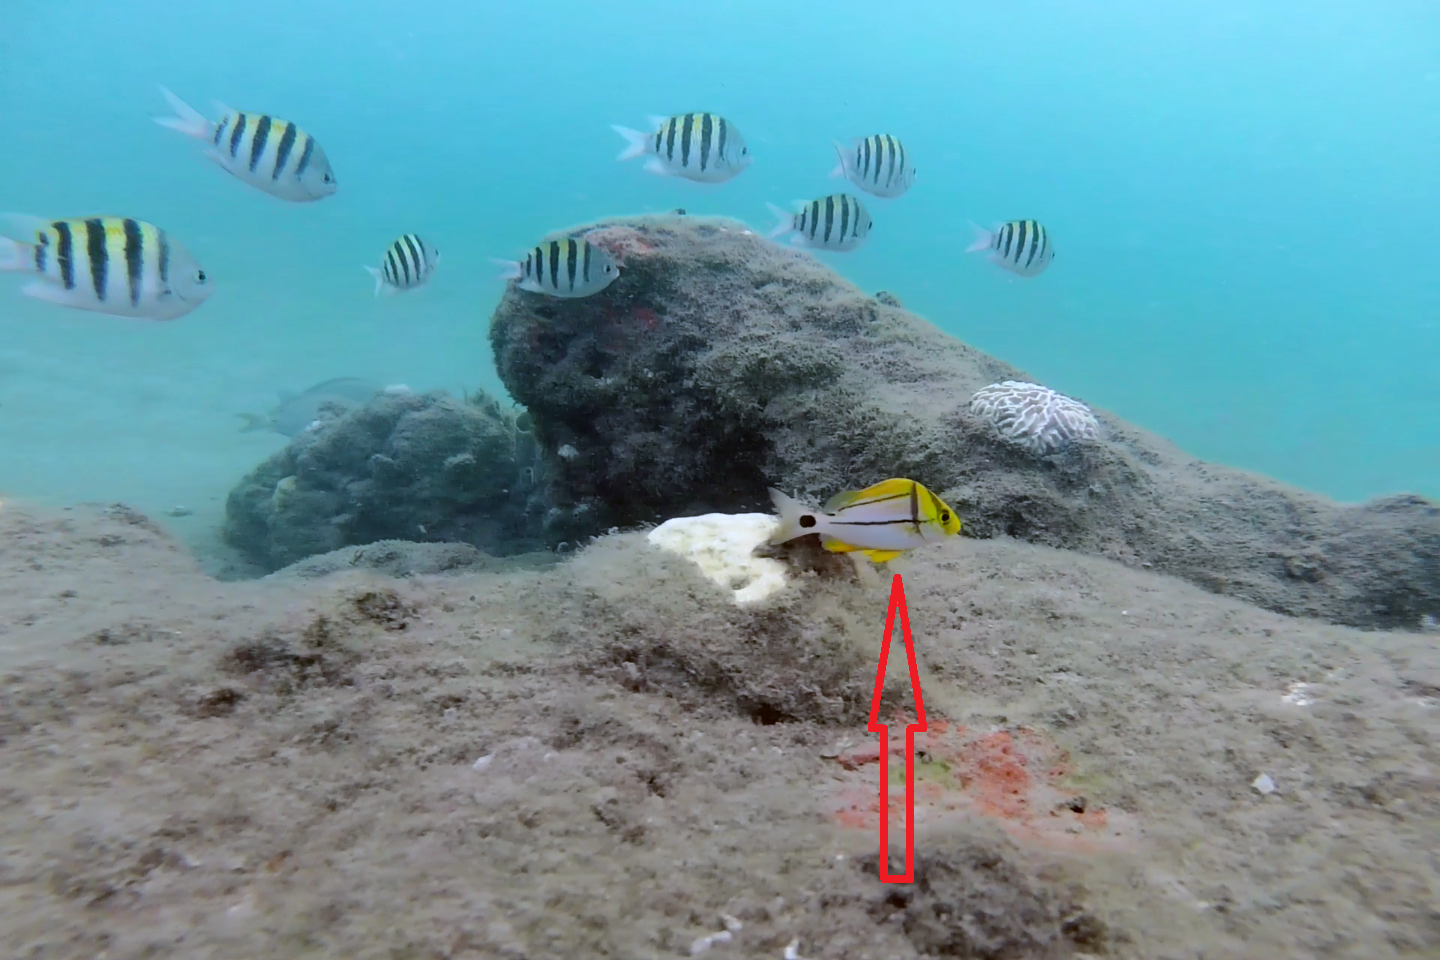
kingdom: Animalia
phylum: Chordata
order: Perciformes
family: Haemulidae
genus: Anisotremus
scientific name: Anisotremus virginicus
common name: Porkfish
